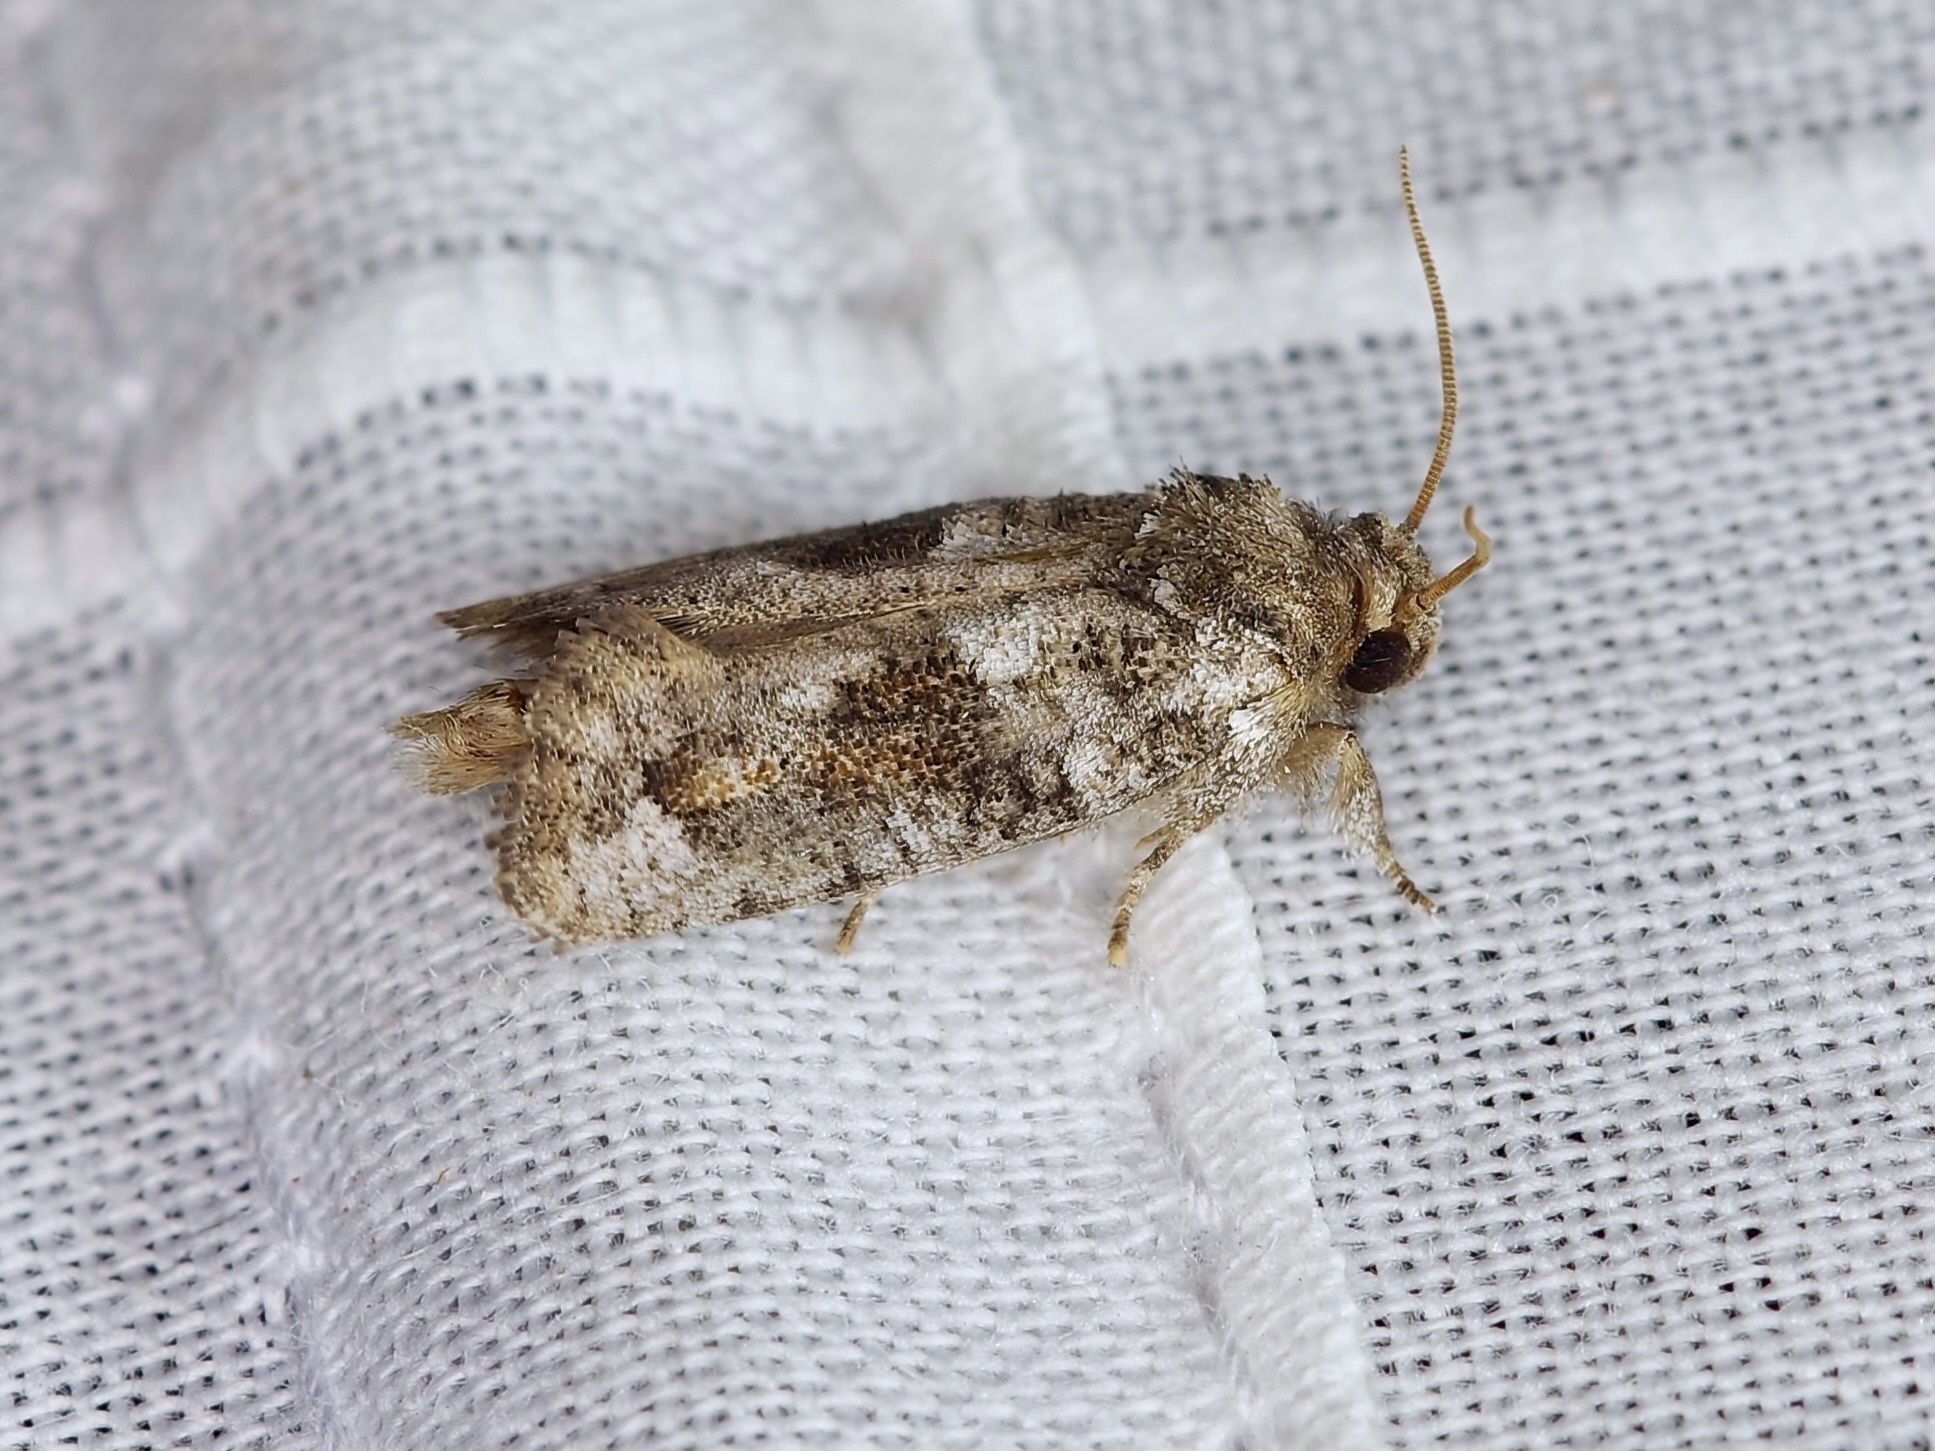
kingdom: Animalia
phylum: Arthropoda
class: Insecta
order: Lepidoptera
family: Tineidae
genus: Acrolophus
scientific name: Acrolophus piger
